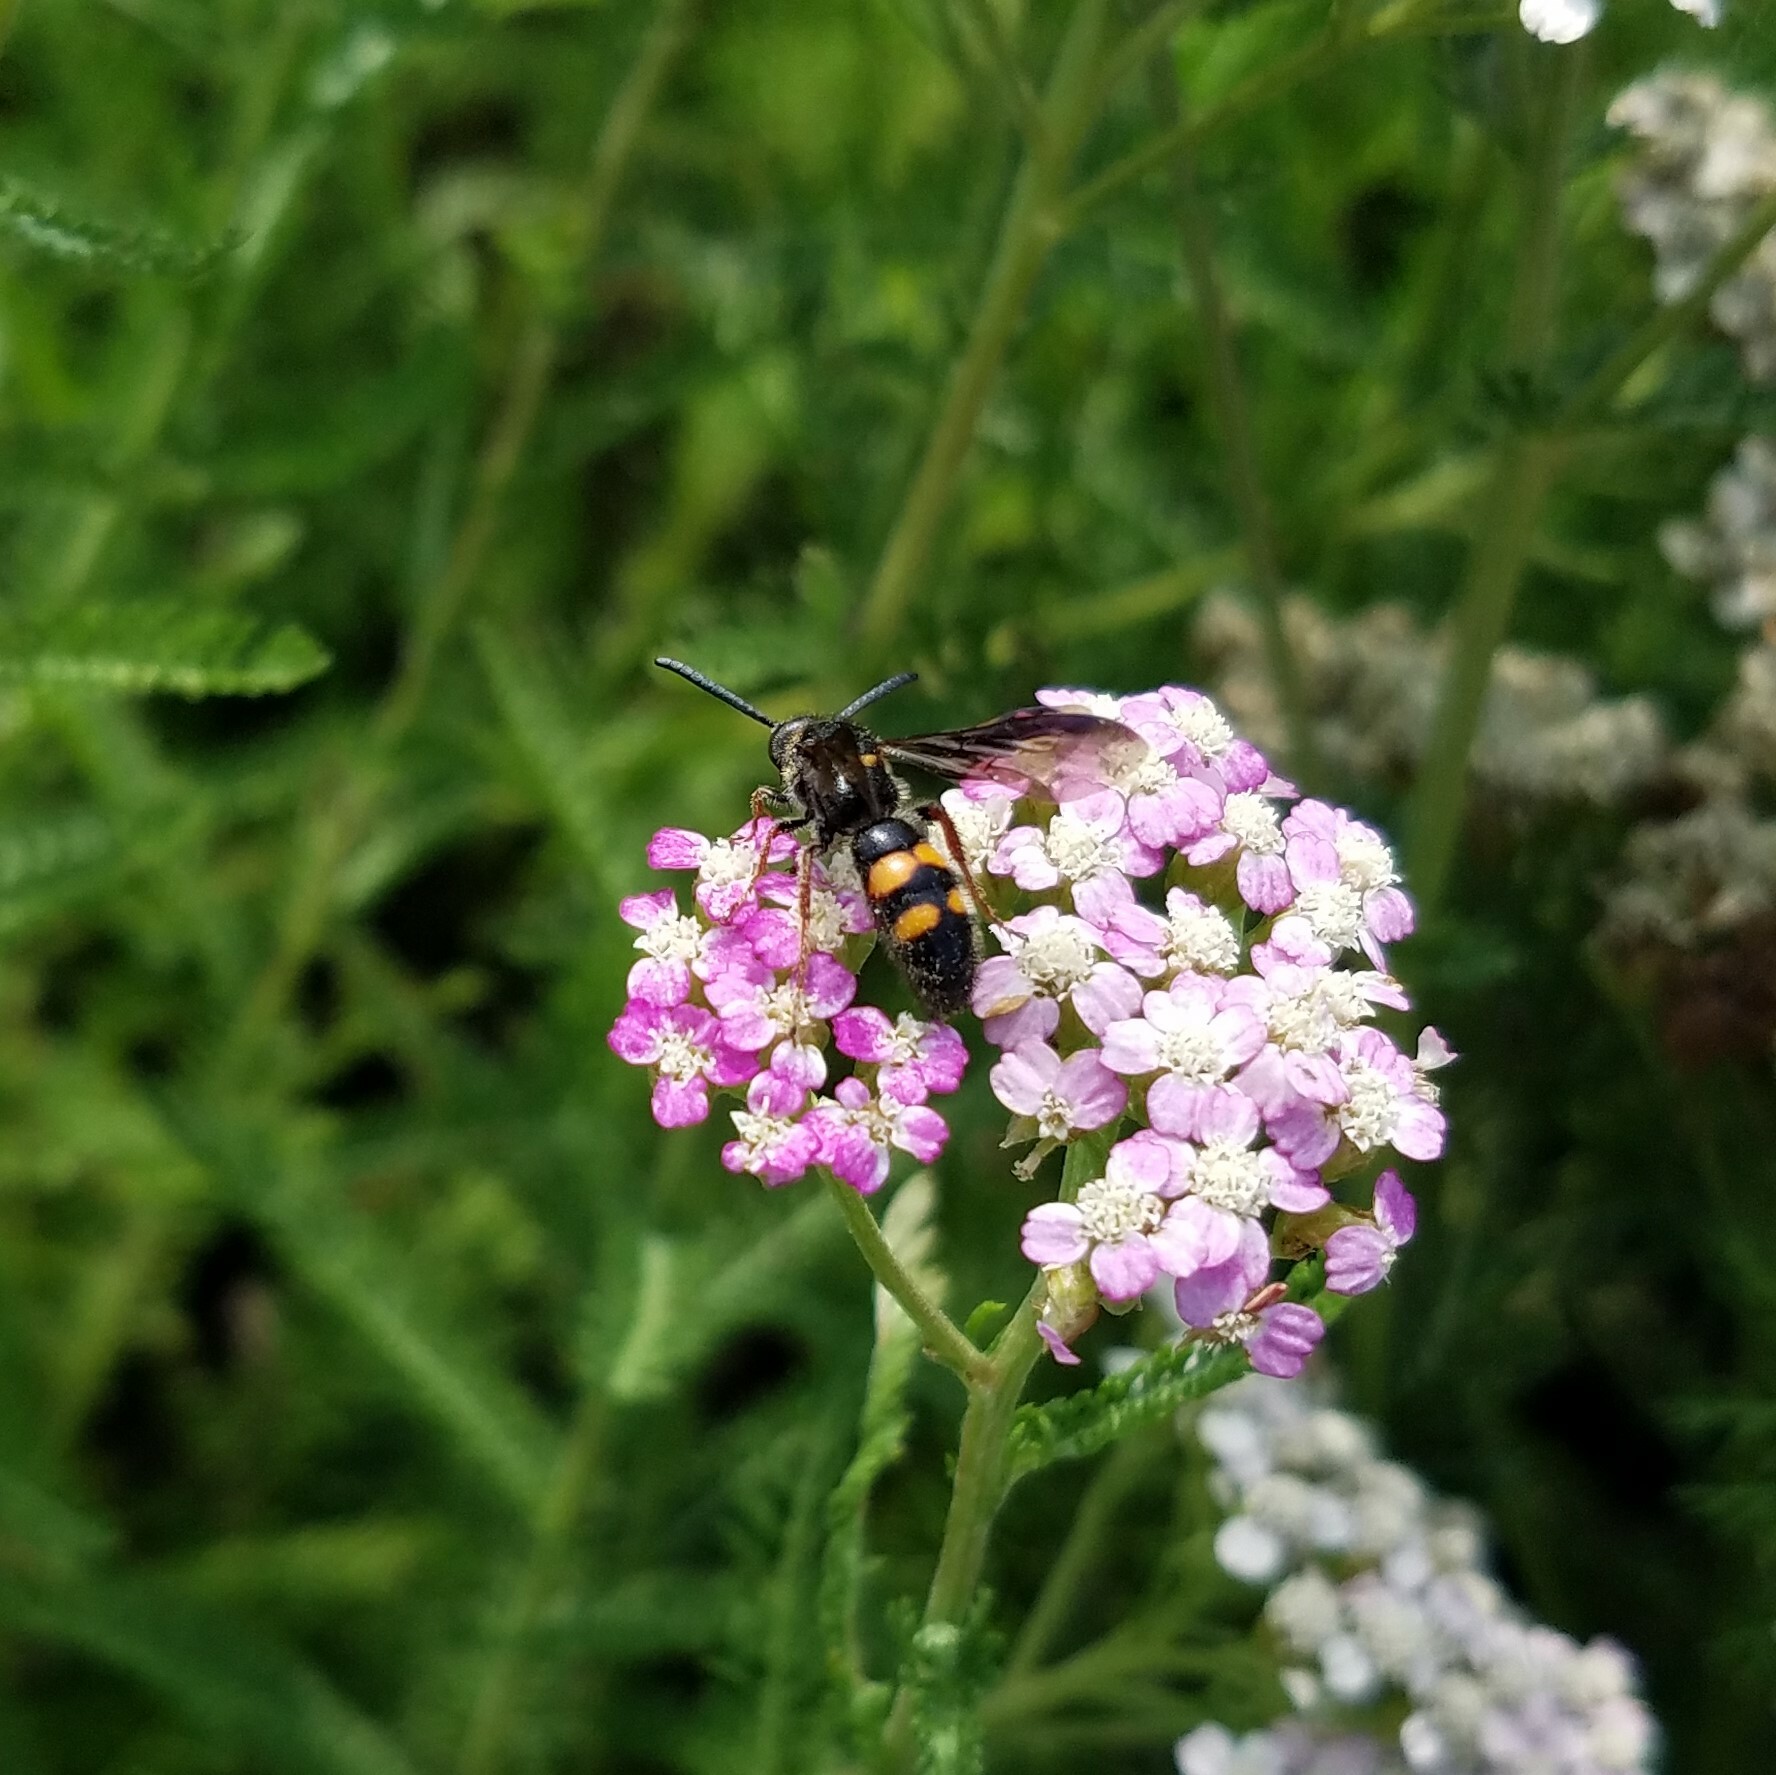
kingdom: Animalia
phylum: Arthropoda
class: Insecta
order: Hymenoptera
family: Scoliidae
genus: Scolia
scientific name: Scolia nobilitata
